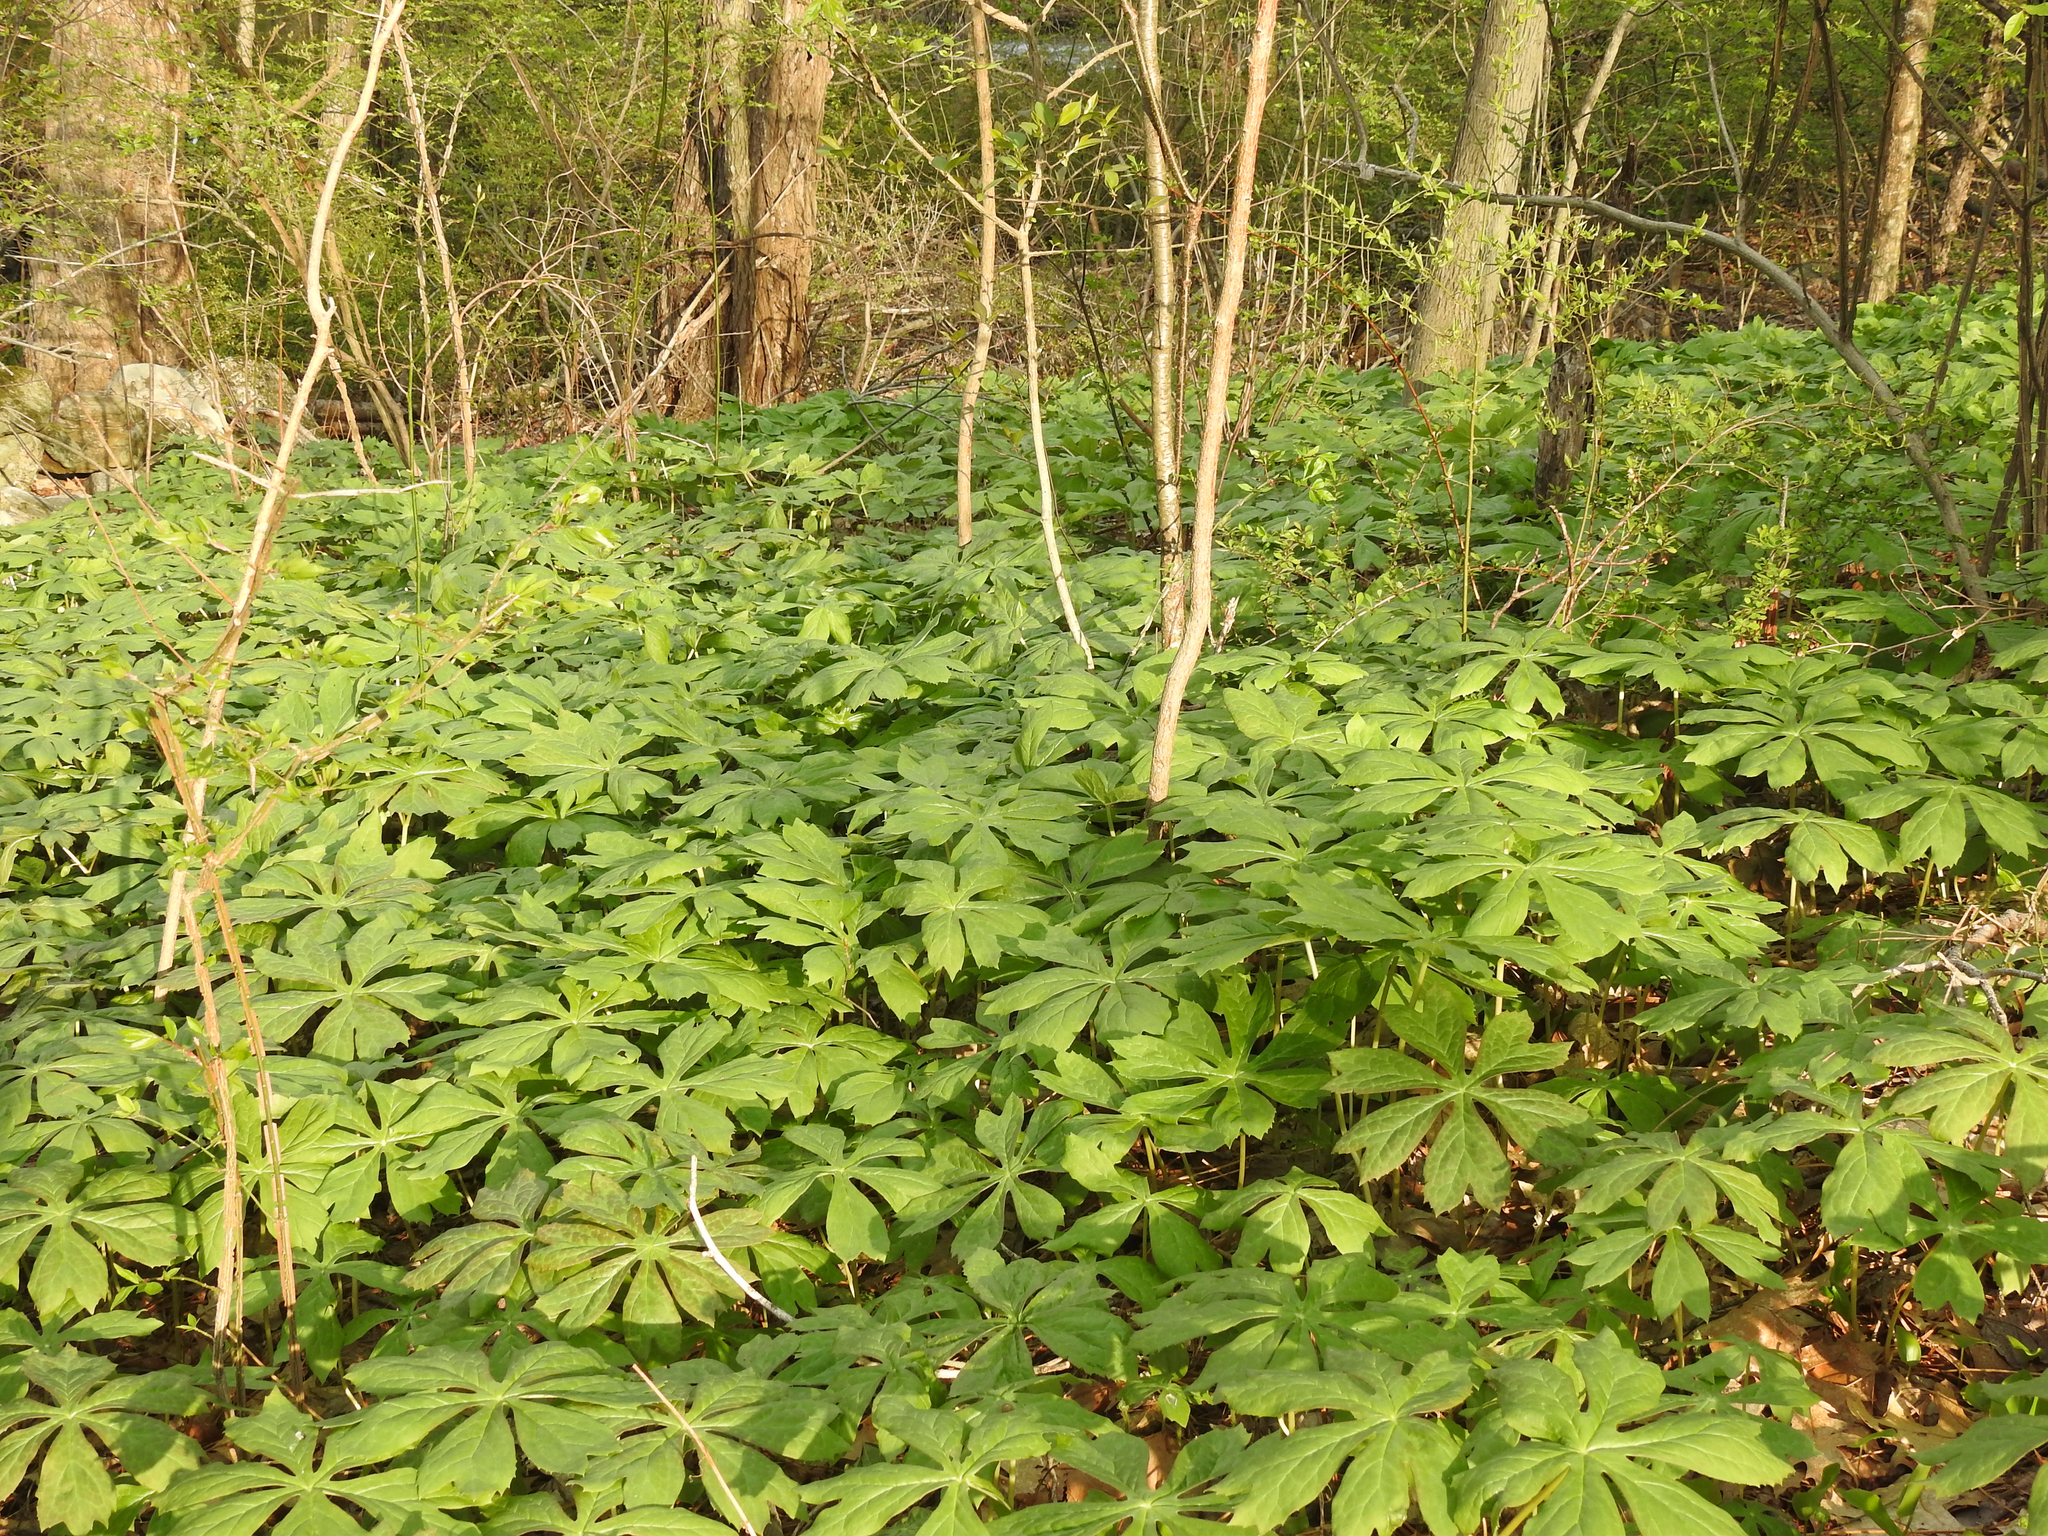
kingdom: Plantae
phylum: Tracheophyta
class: Magnoliopsida
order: Ranunculales
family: Berberidaceae
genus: Podophyllum
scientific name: Podophyllum peltatum
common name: Wild mandrake
